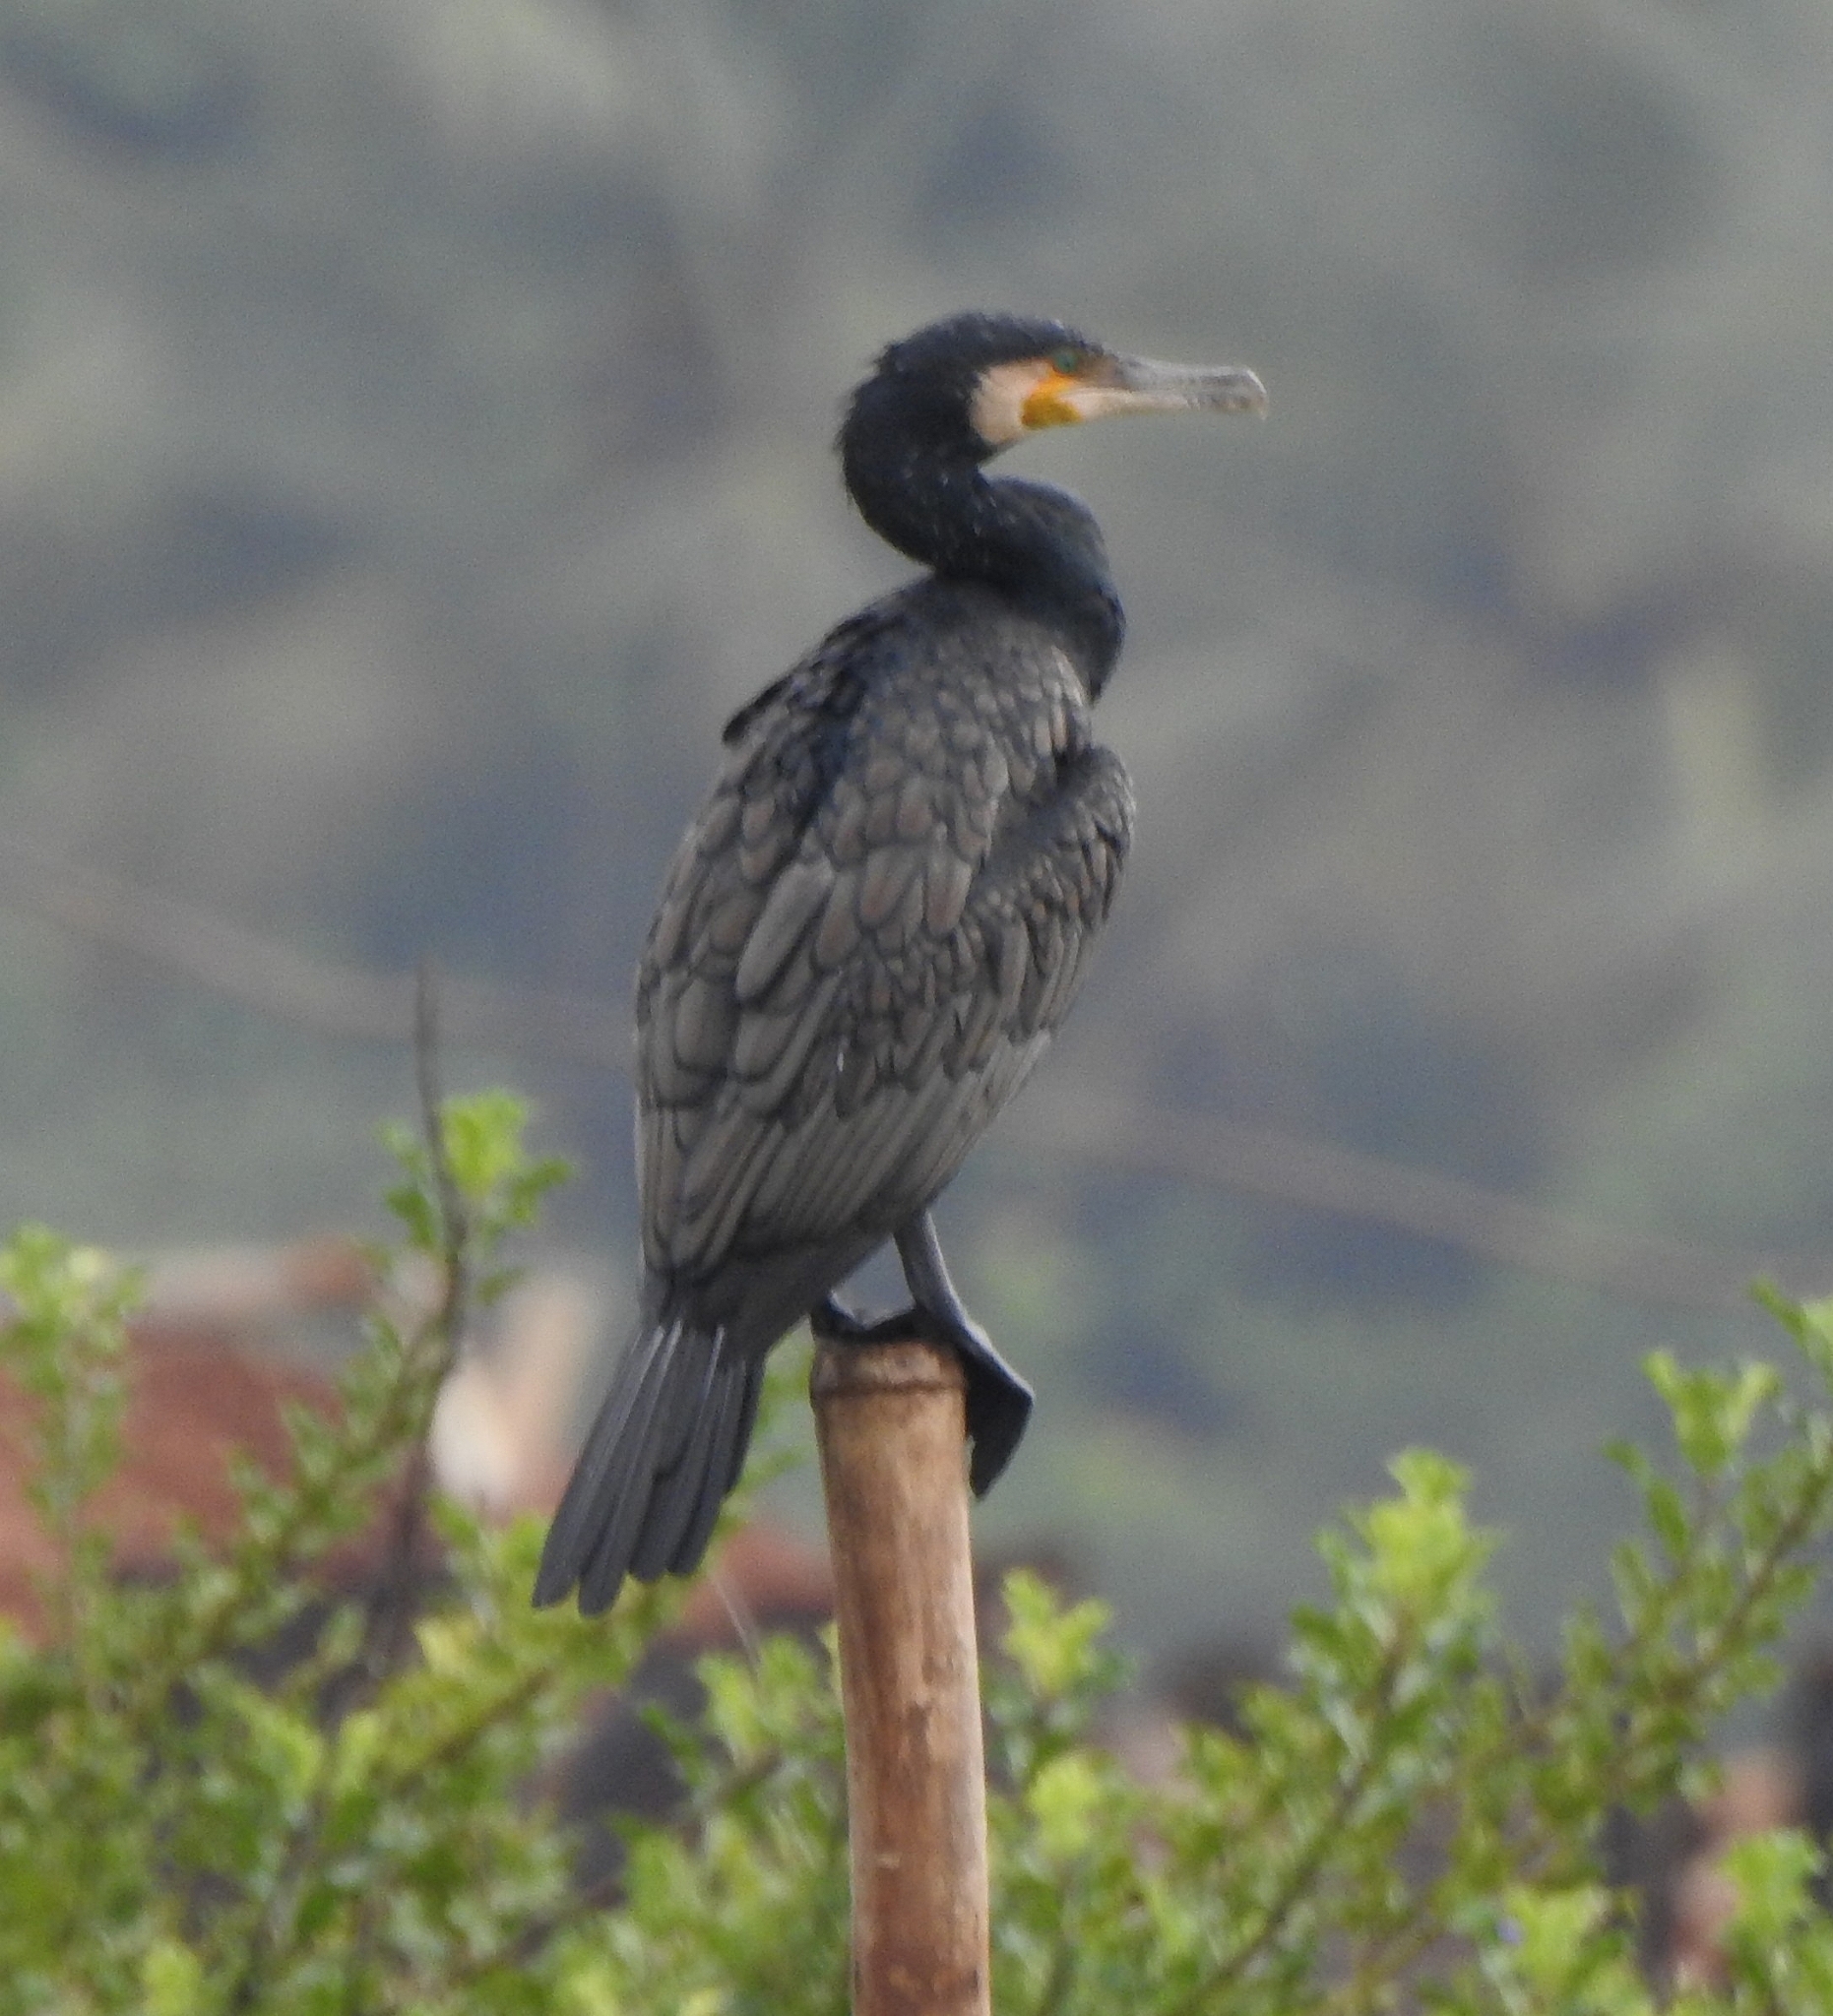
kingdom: Animalia
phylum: Chordata
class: Aves
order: Suliformes
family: Phalacrocoracidae
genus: Phalacrocorax
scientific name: Phalacrocorax carbo
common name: Great cormorant
